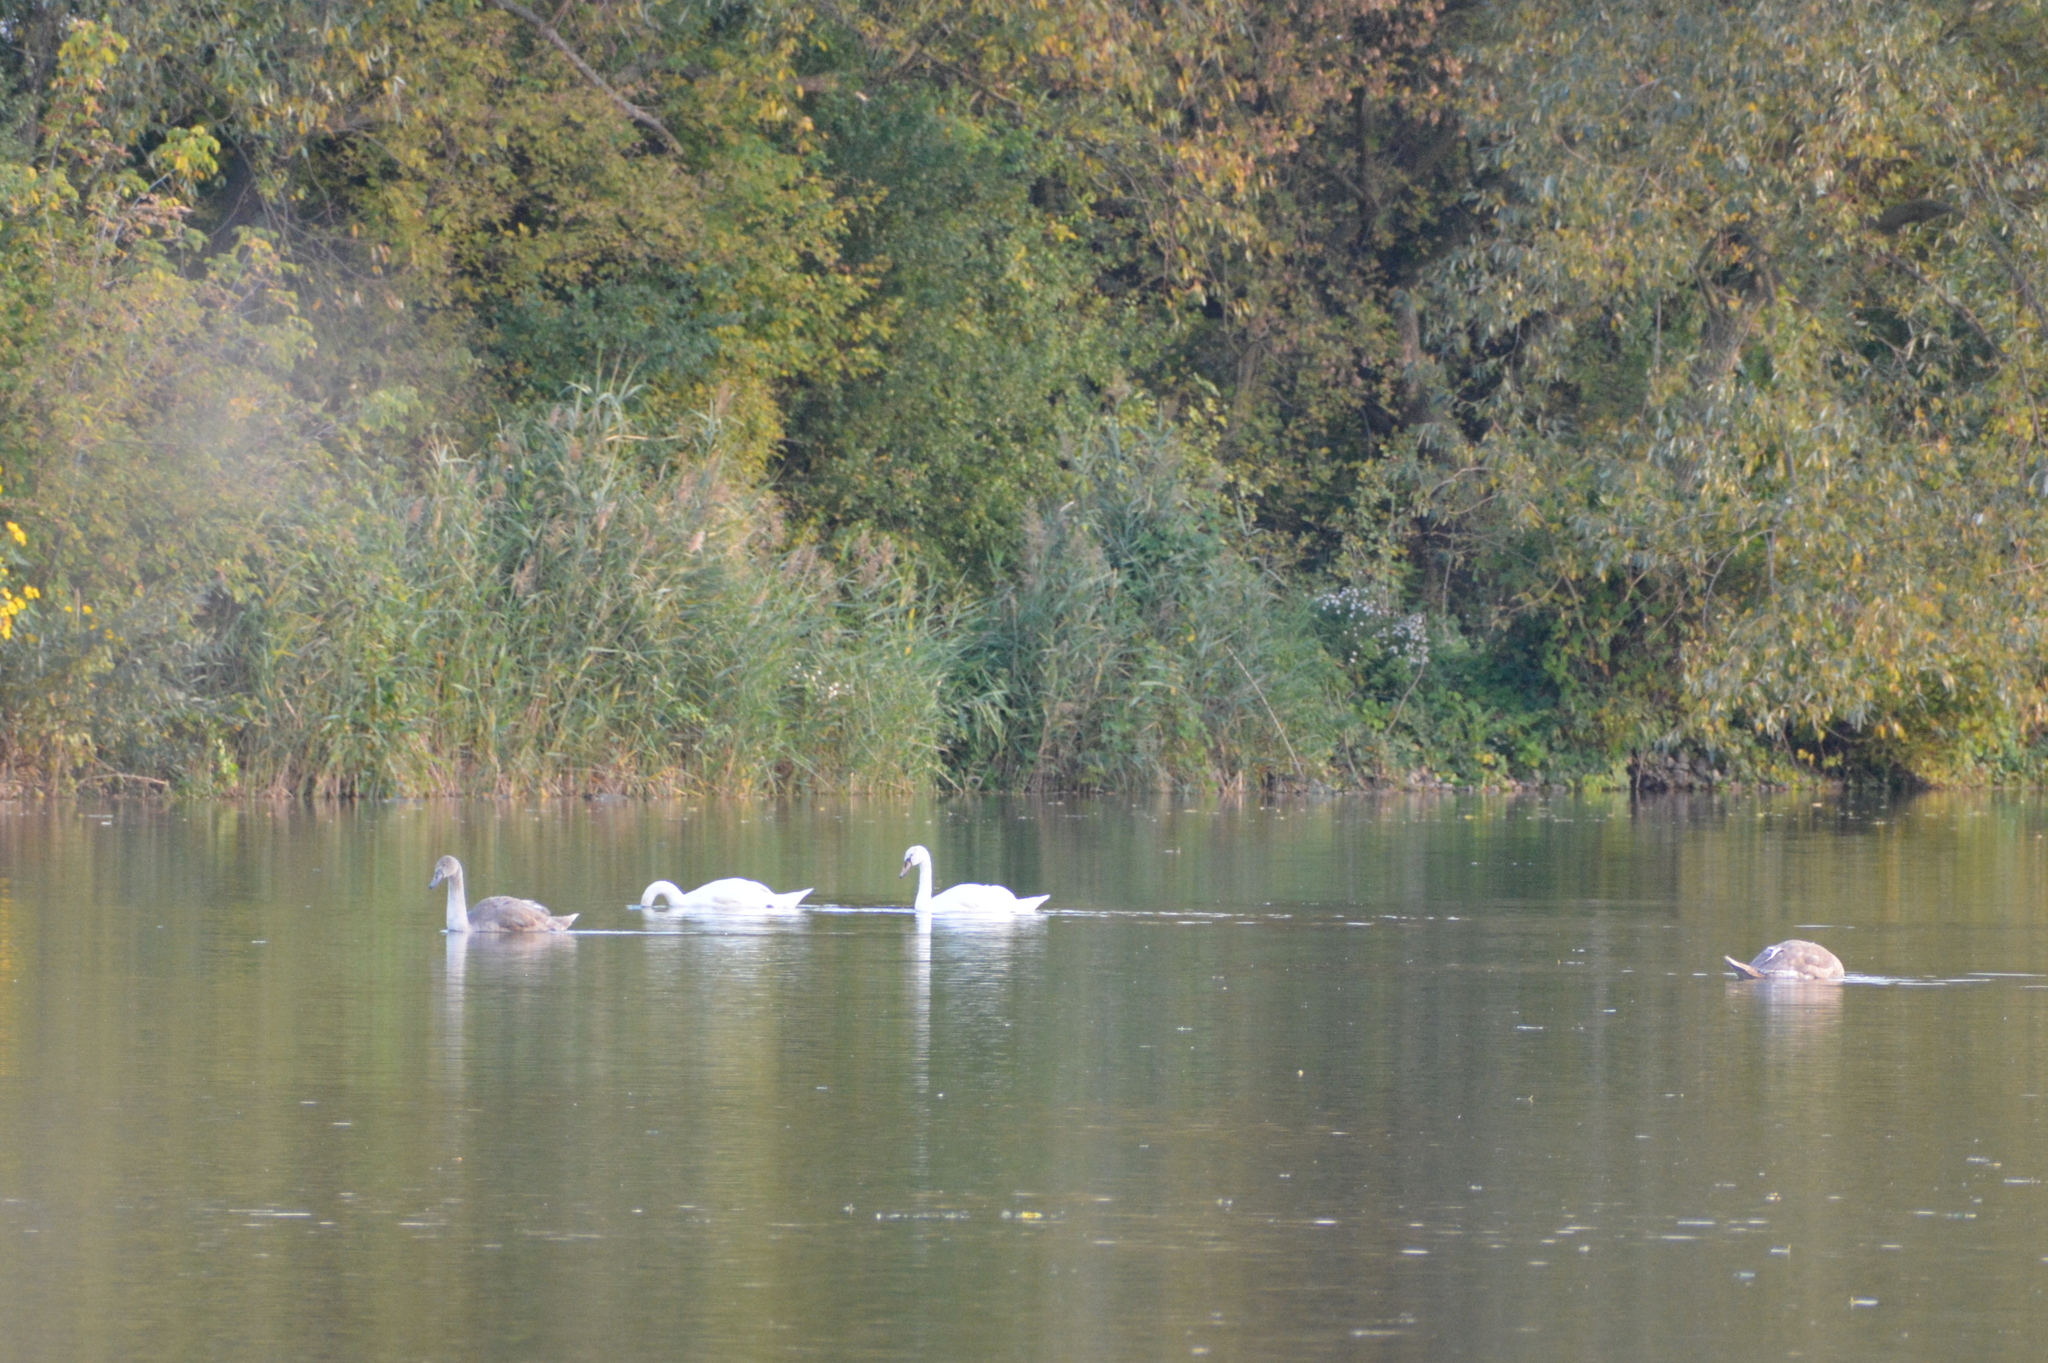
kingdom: Animalia
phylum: Chordata
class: Aves
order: Anseriformes
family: Anatidae
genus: Cygnus
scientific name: Cygnus olor
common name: Mute swan
